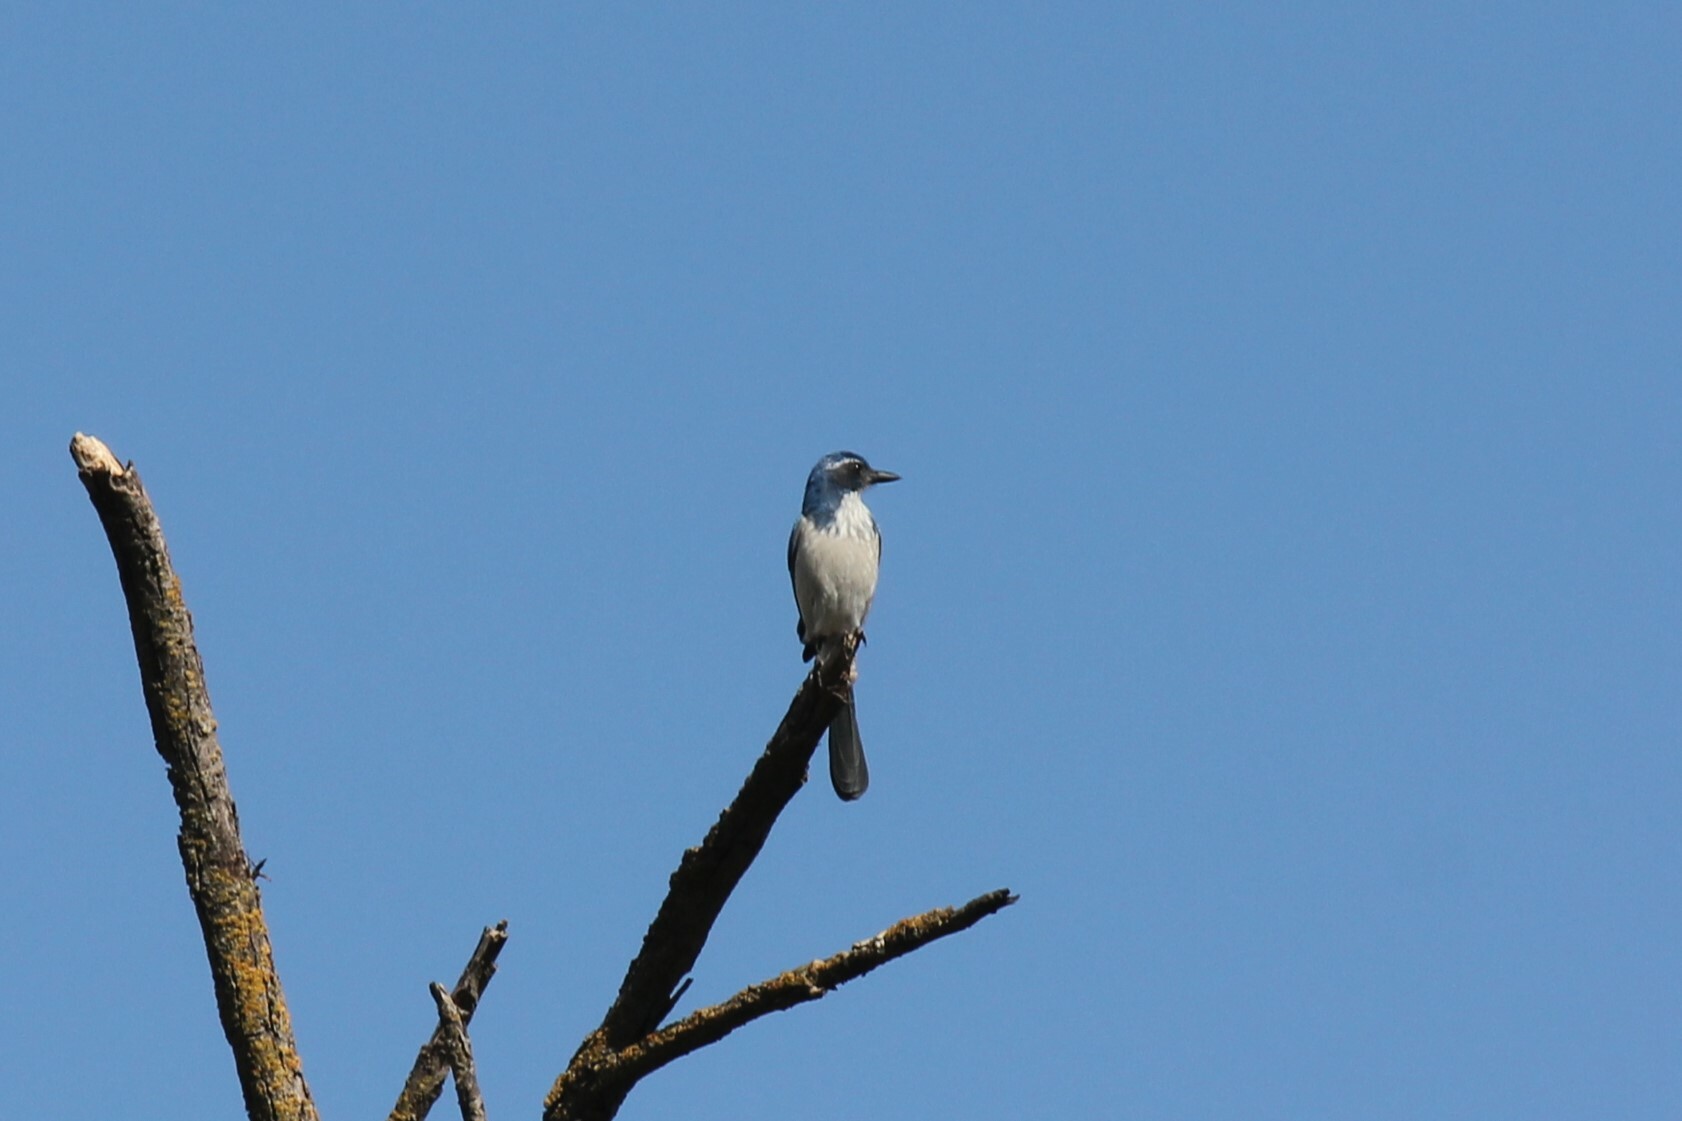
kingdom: Animalia
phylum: Chordata
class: Aves
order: Passeriformes
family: Corvidae
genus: Aphelocoma
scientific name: Aphelocoma californica
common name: California scrub-jay
